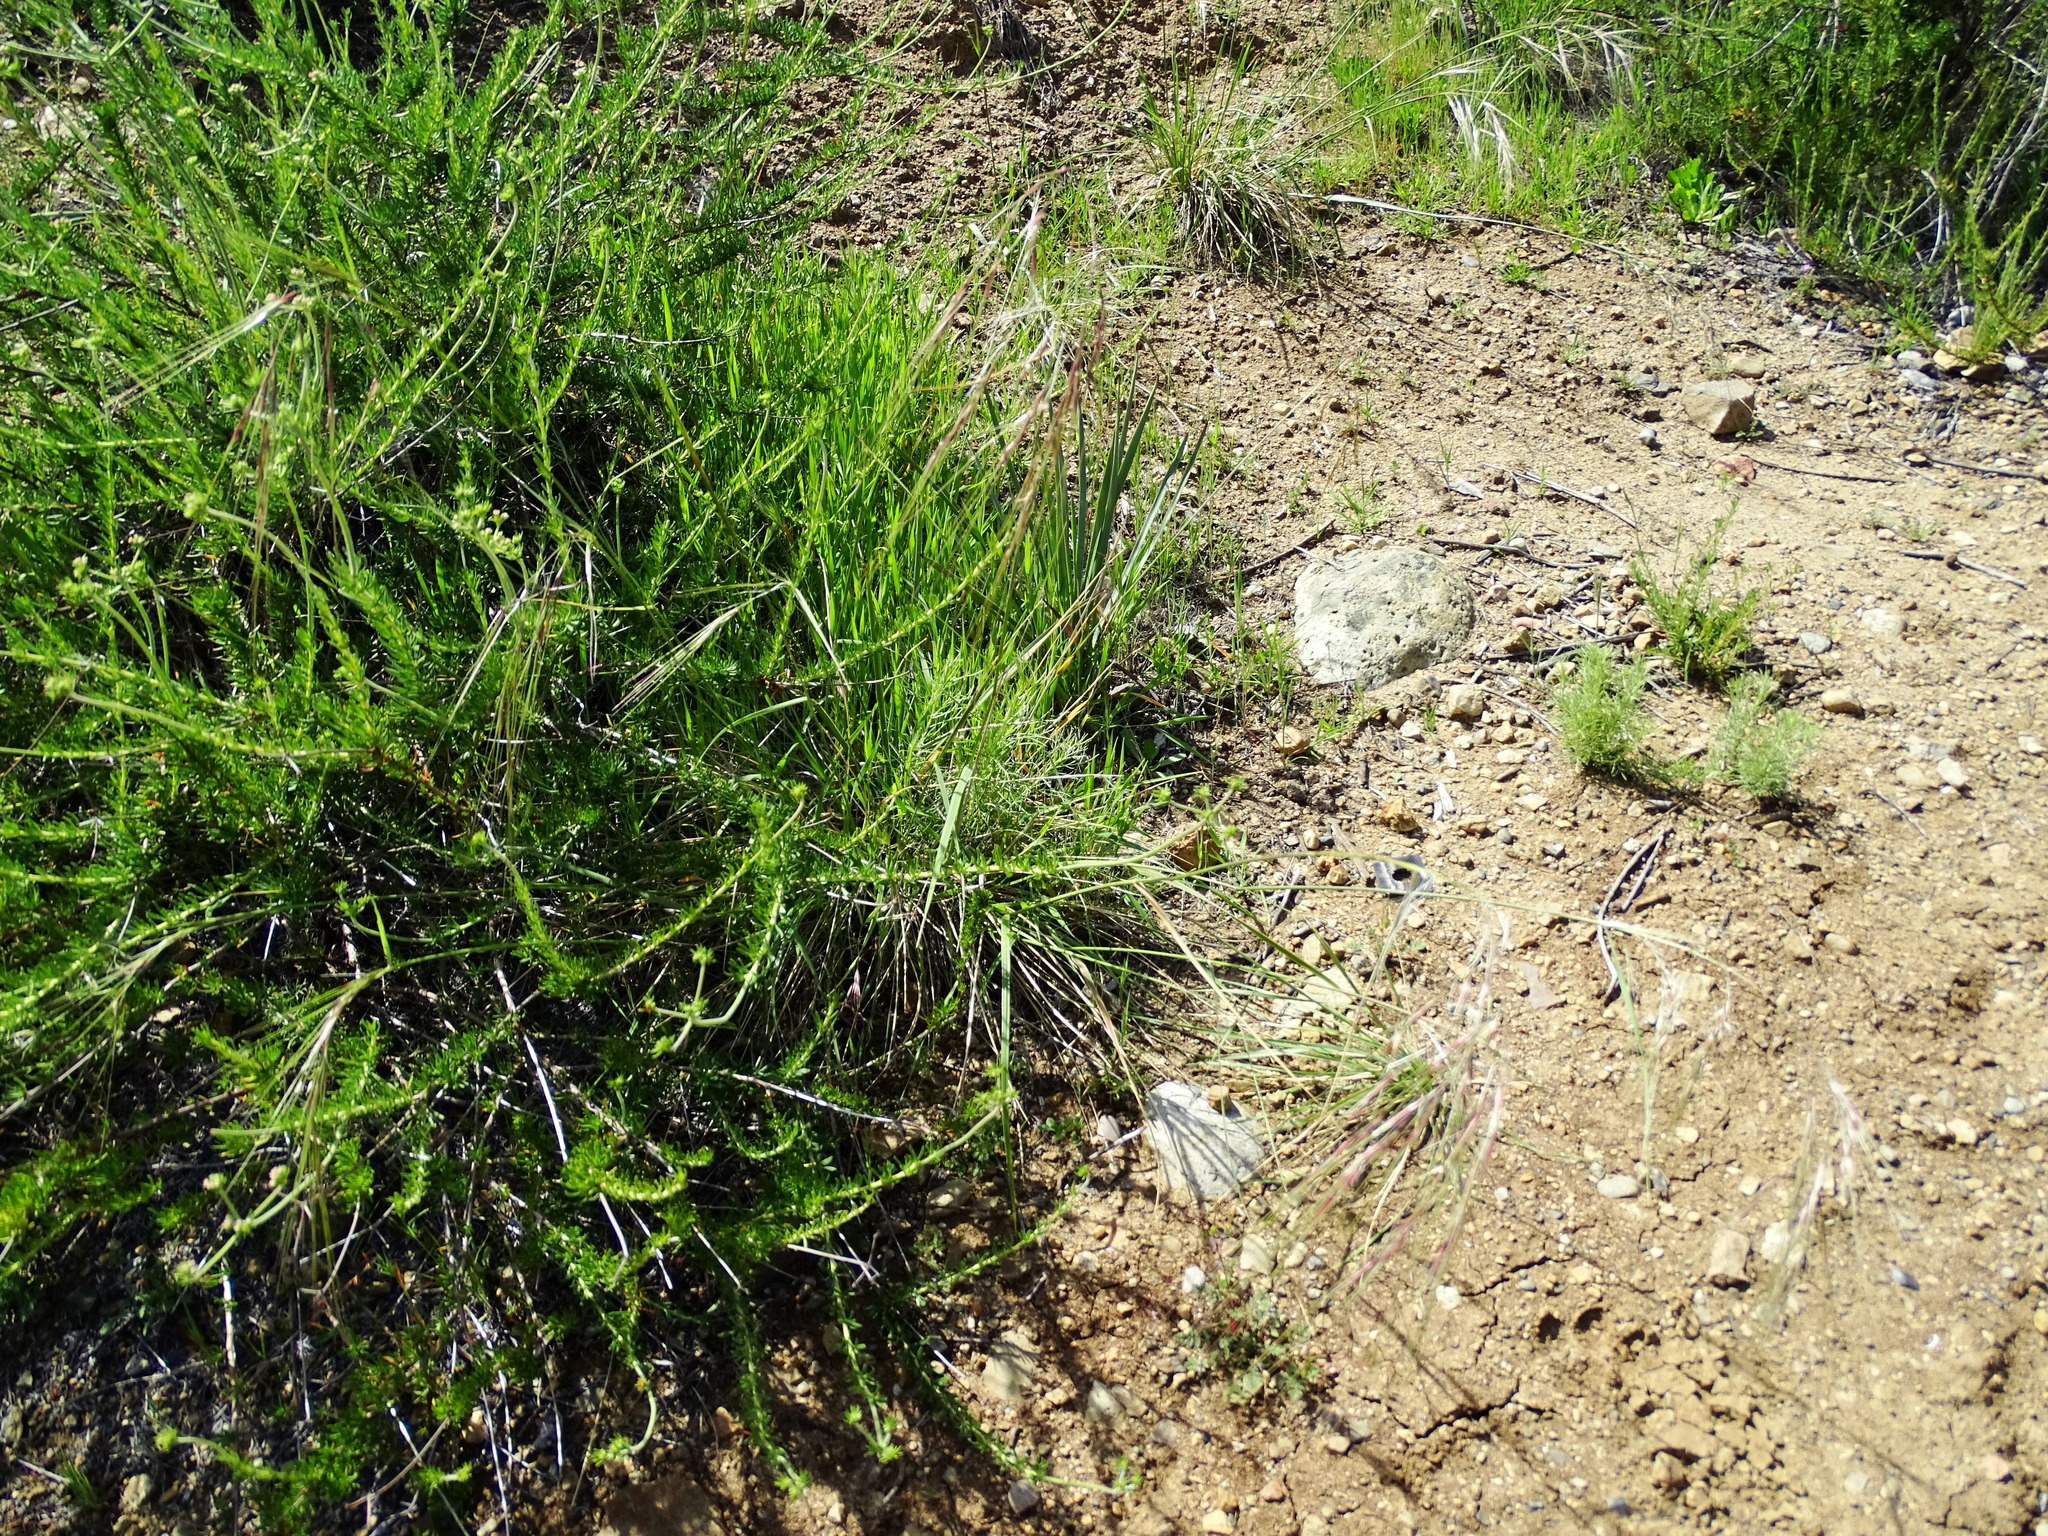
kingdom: Plantae
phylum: Tracheophyta
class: Liliopsida
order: Poales
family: Poaceae
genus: Nassella
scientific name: Nassella pulchra
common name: Purple needlegrass
